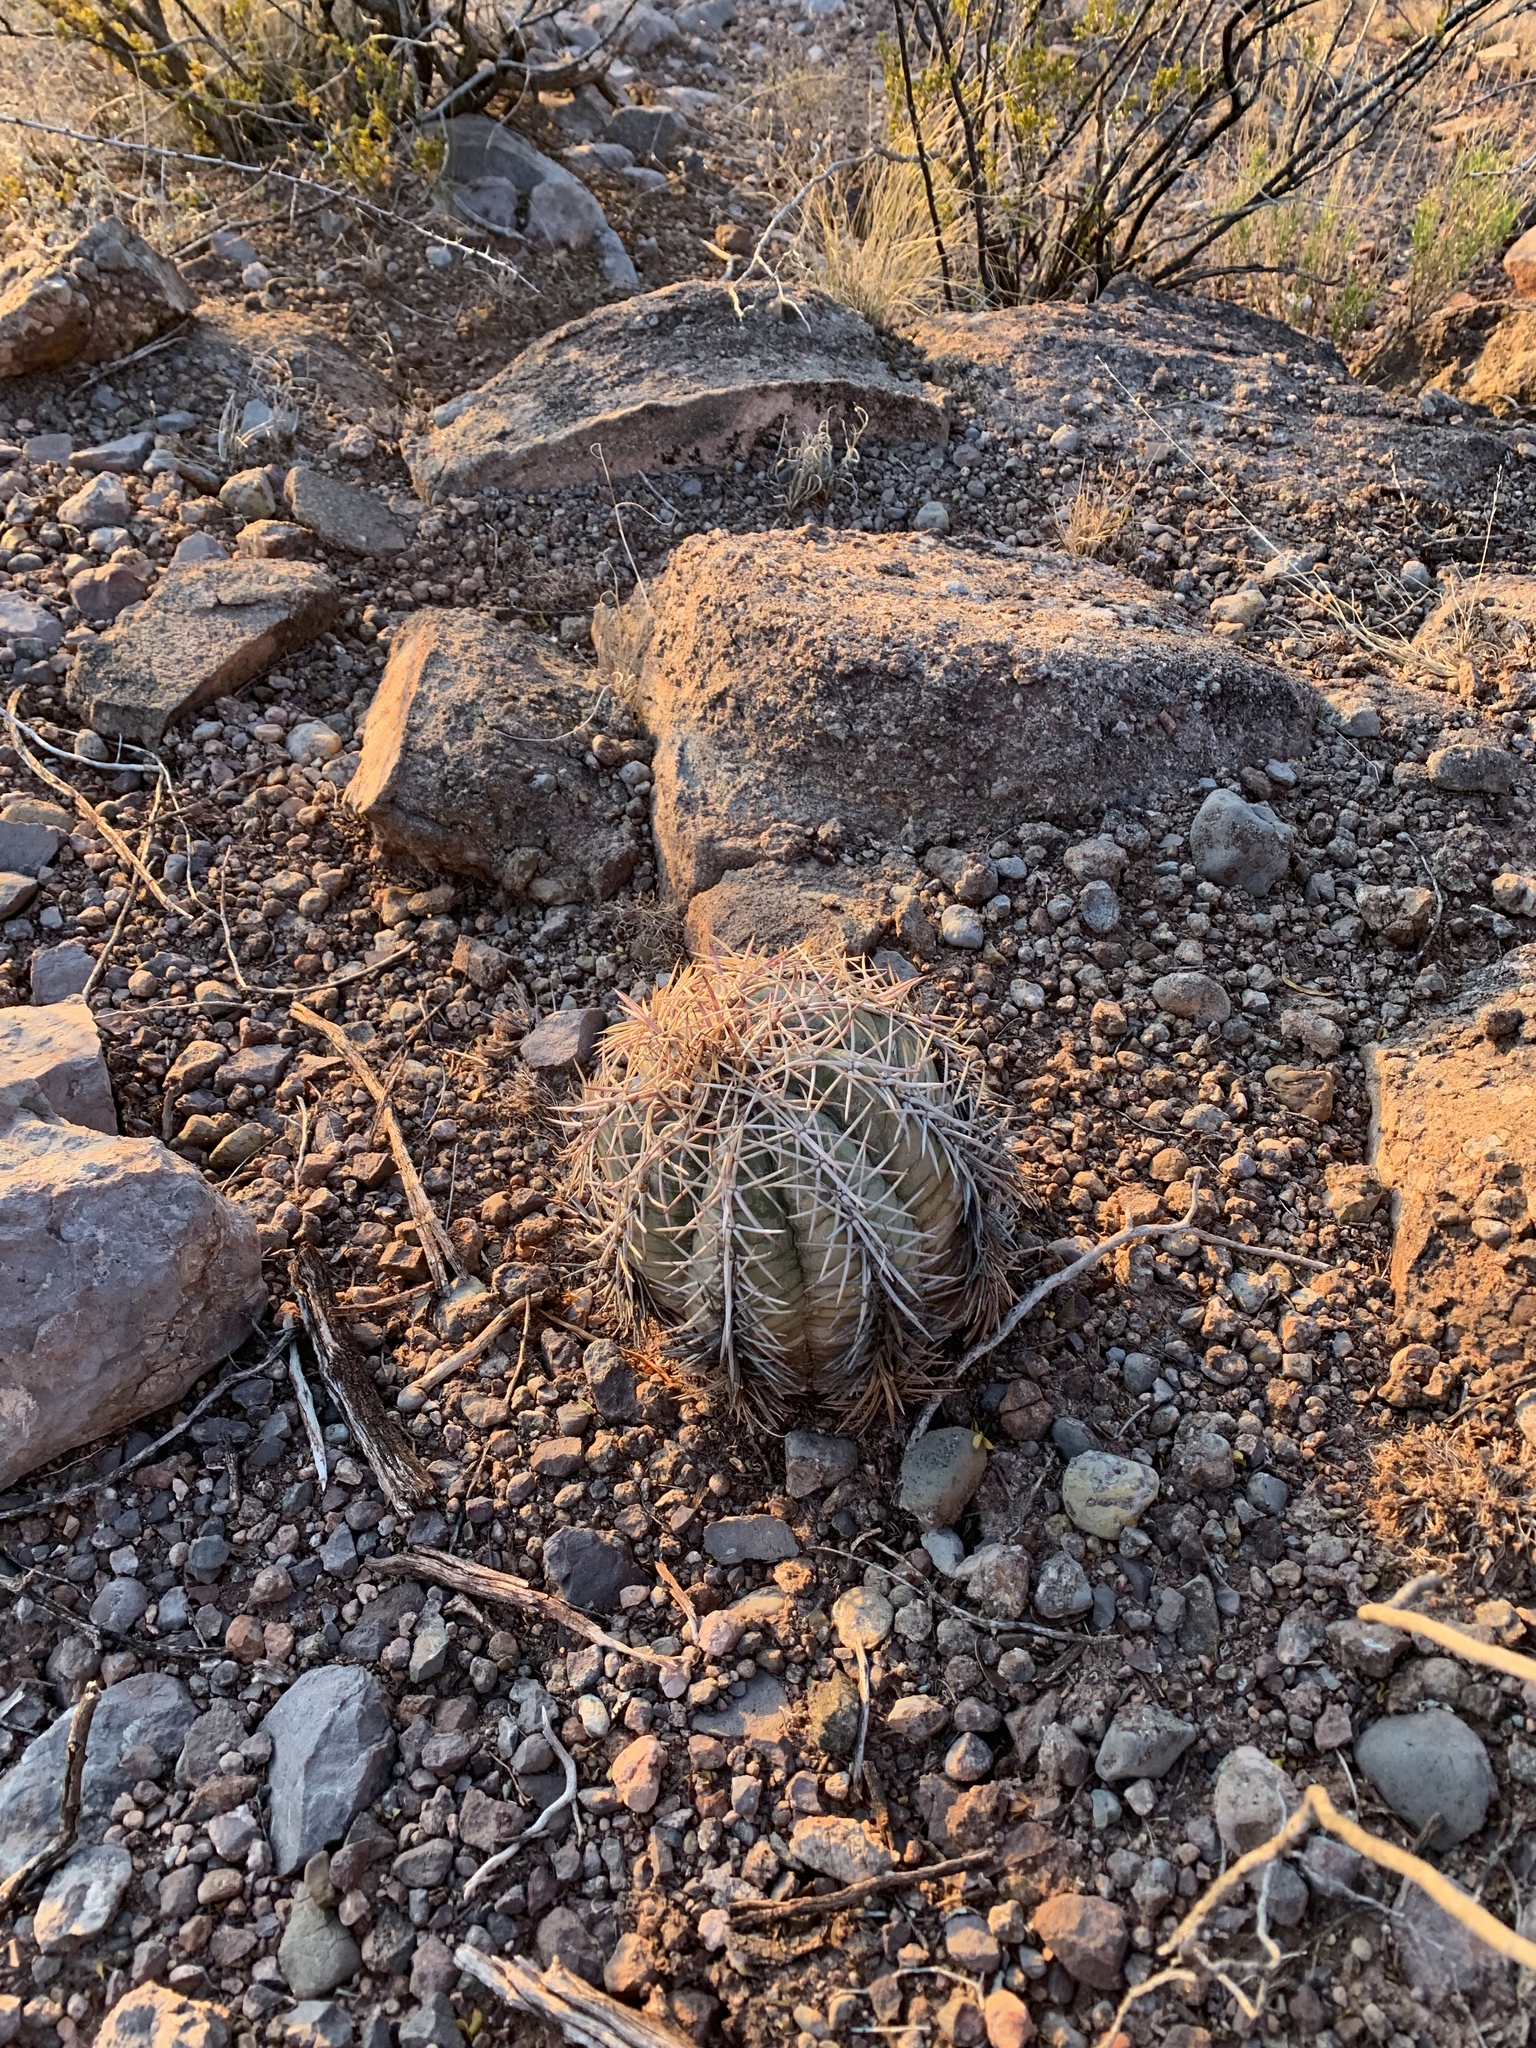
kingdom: Plantae
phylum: Tracheophyta
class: Magnoliopsida
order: Caryophyllales
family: Cactaceae
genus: Echinocactus
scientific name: Echinocactus horizonthalonius
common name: Devilshead
